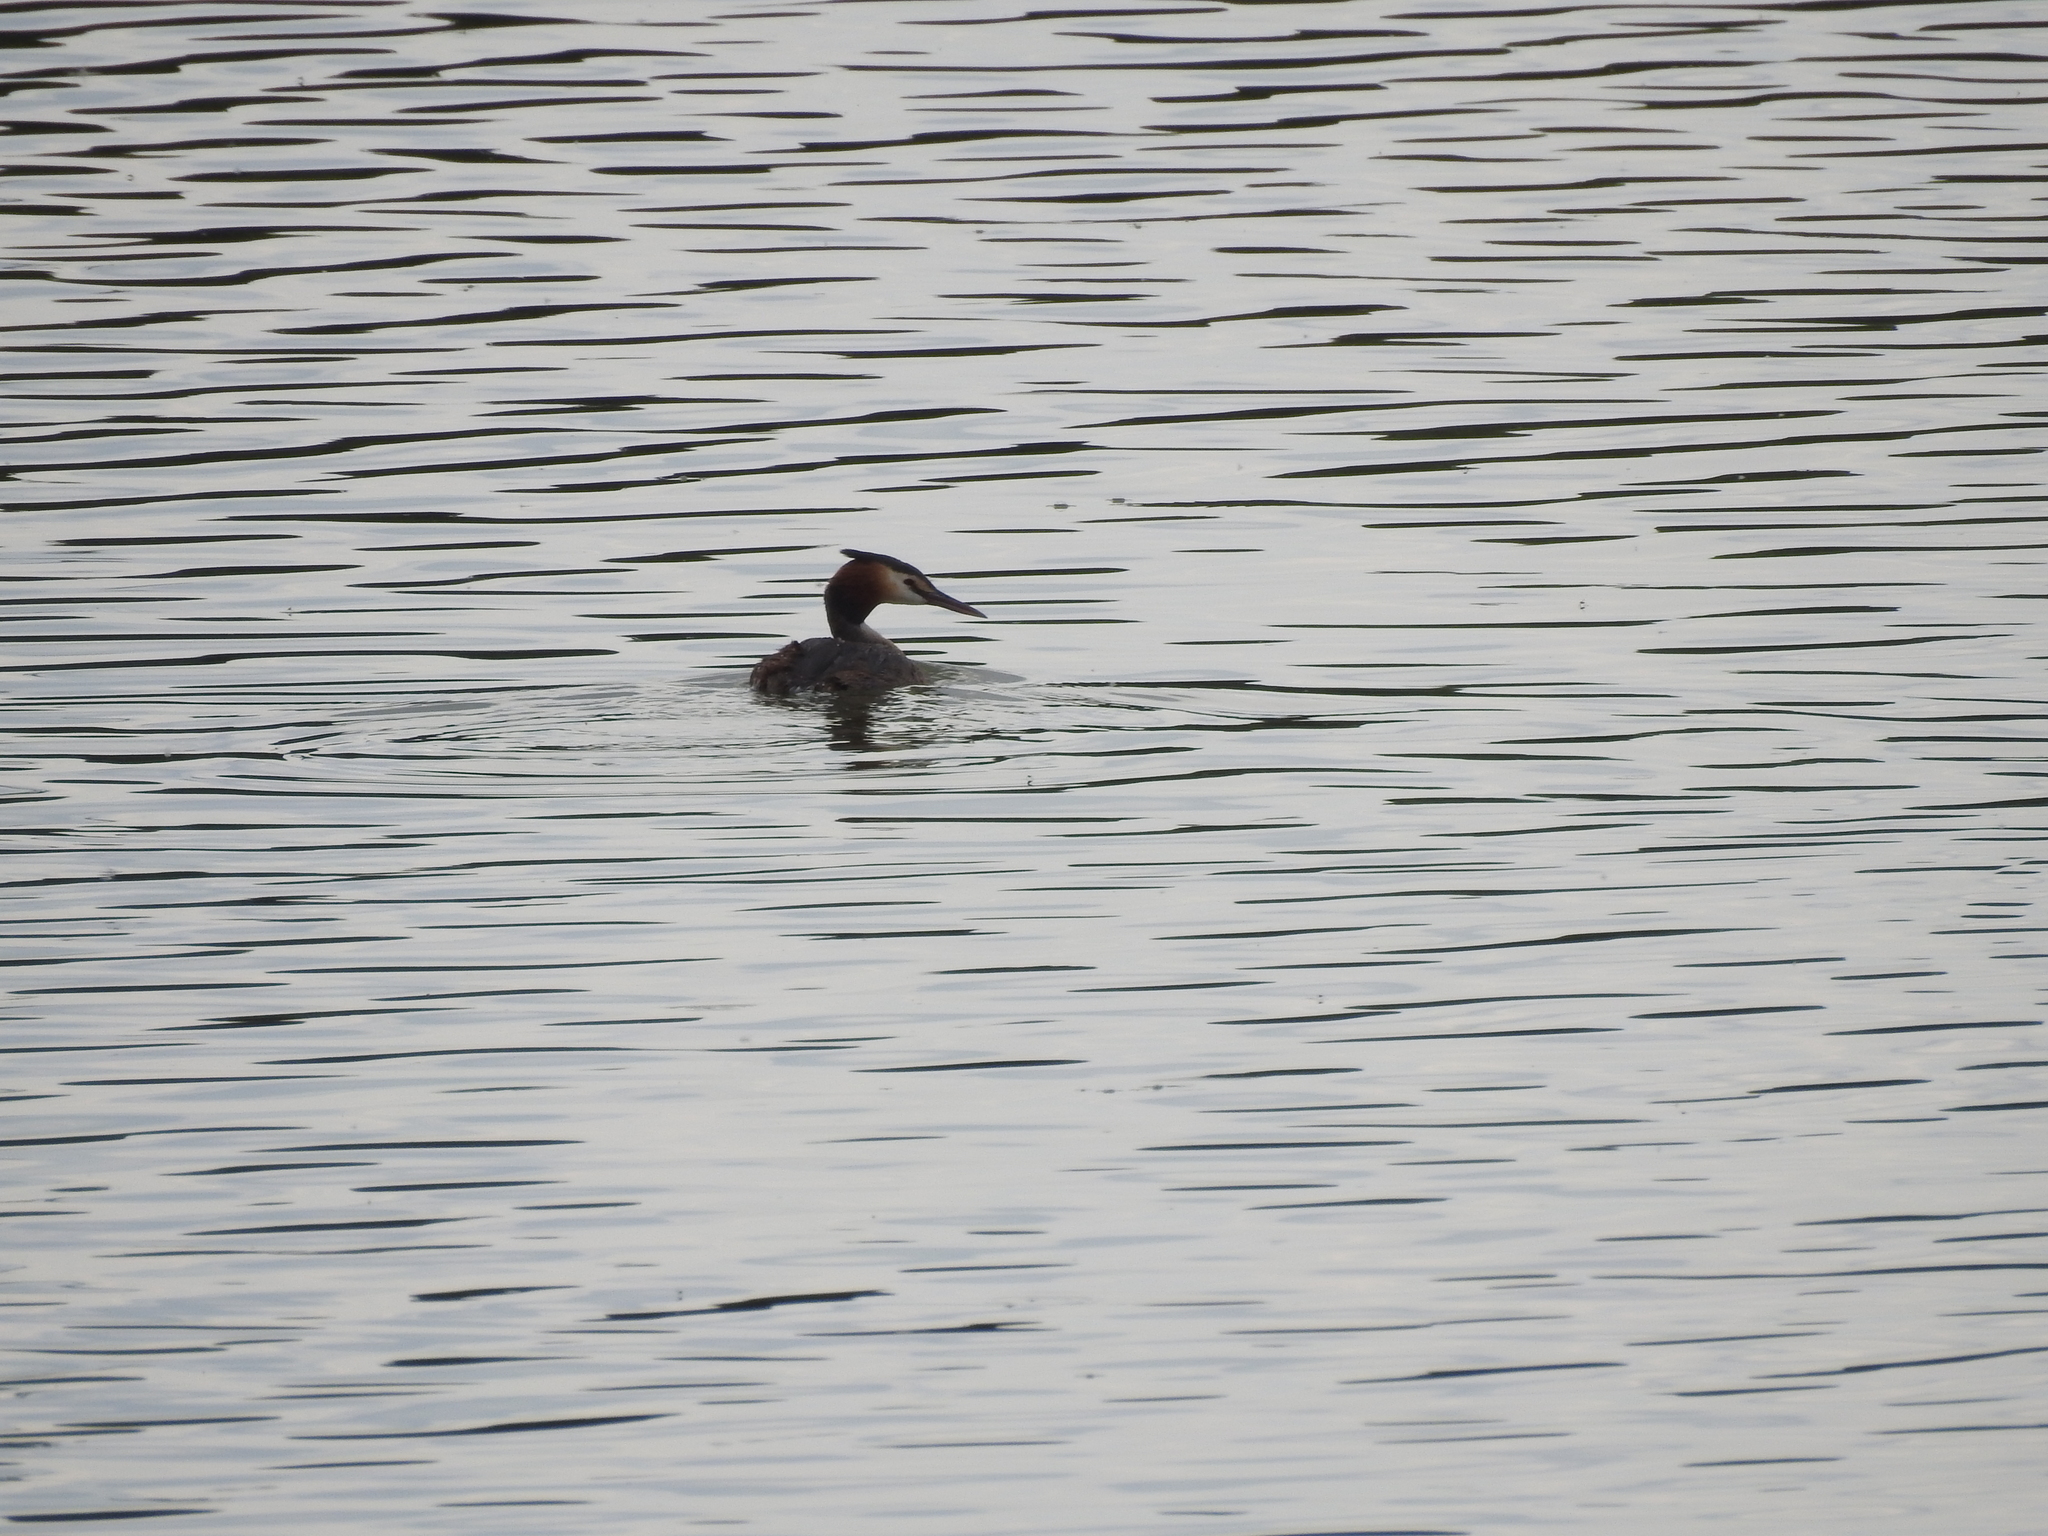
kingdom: Animalia
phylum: Chordata
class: Aves
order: Podicipediformes
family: Podicipedidae
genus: Podiceps
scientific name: Podiceps cristatus
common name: Great crested grebe
